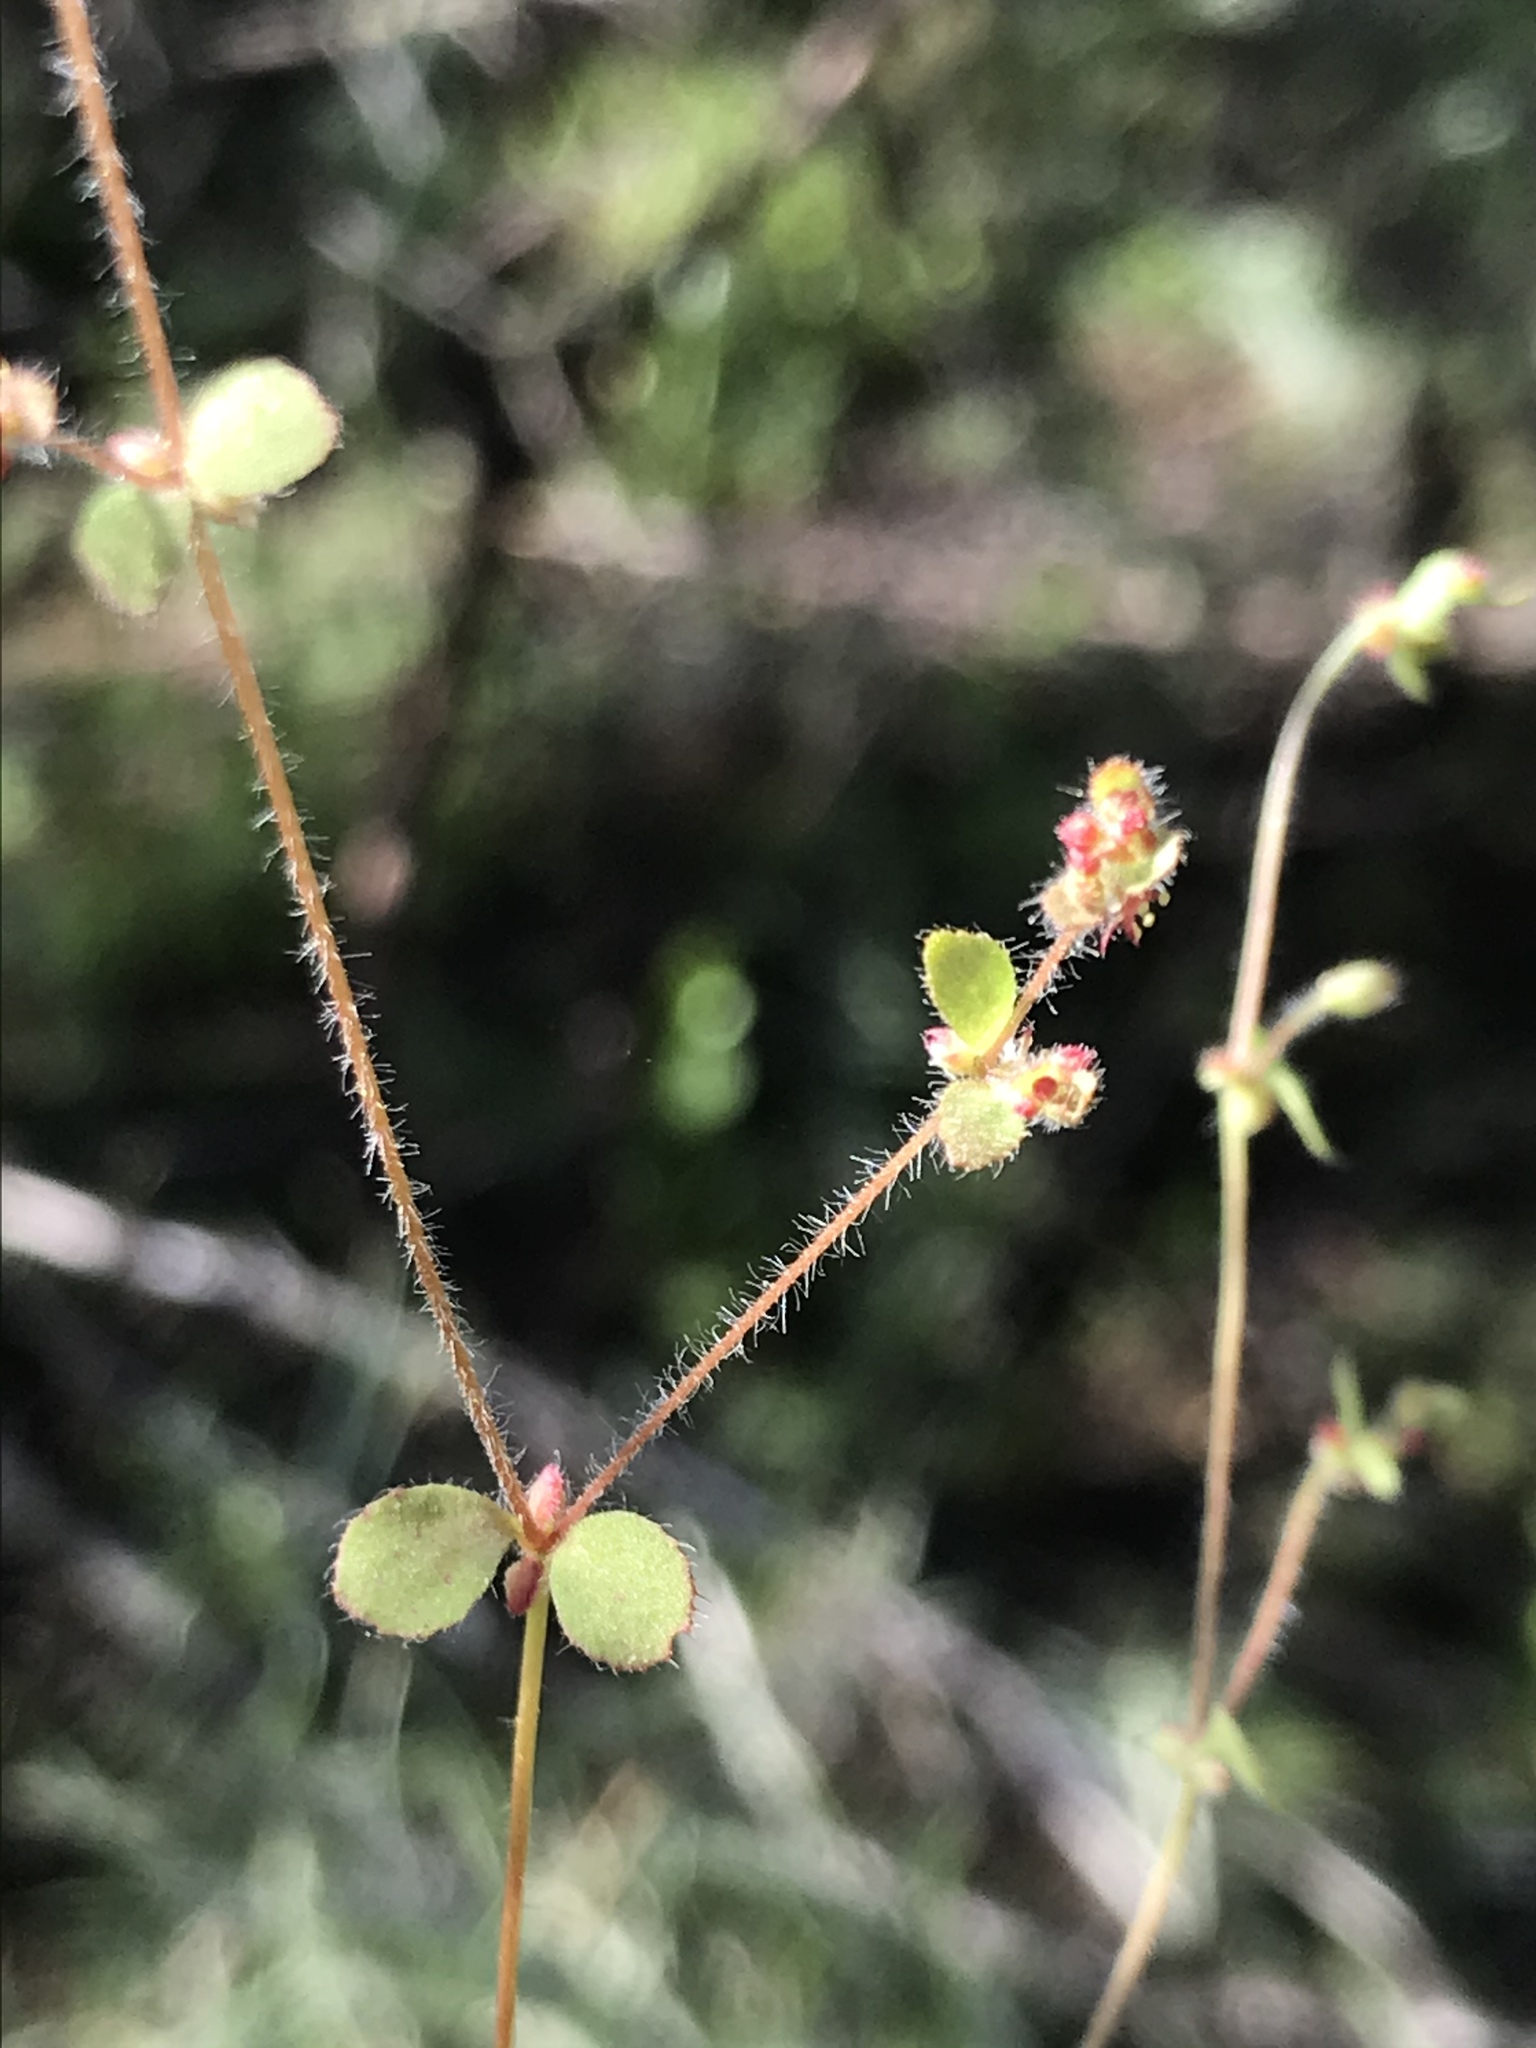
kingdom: Plantae
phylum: Tracheophyta
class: Magnoliopsida
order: Caryophyllales
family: Polygonaceae
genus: Pterostegia
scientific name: Pterostegia drymarioides
